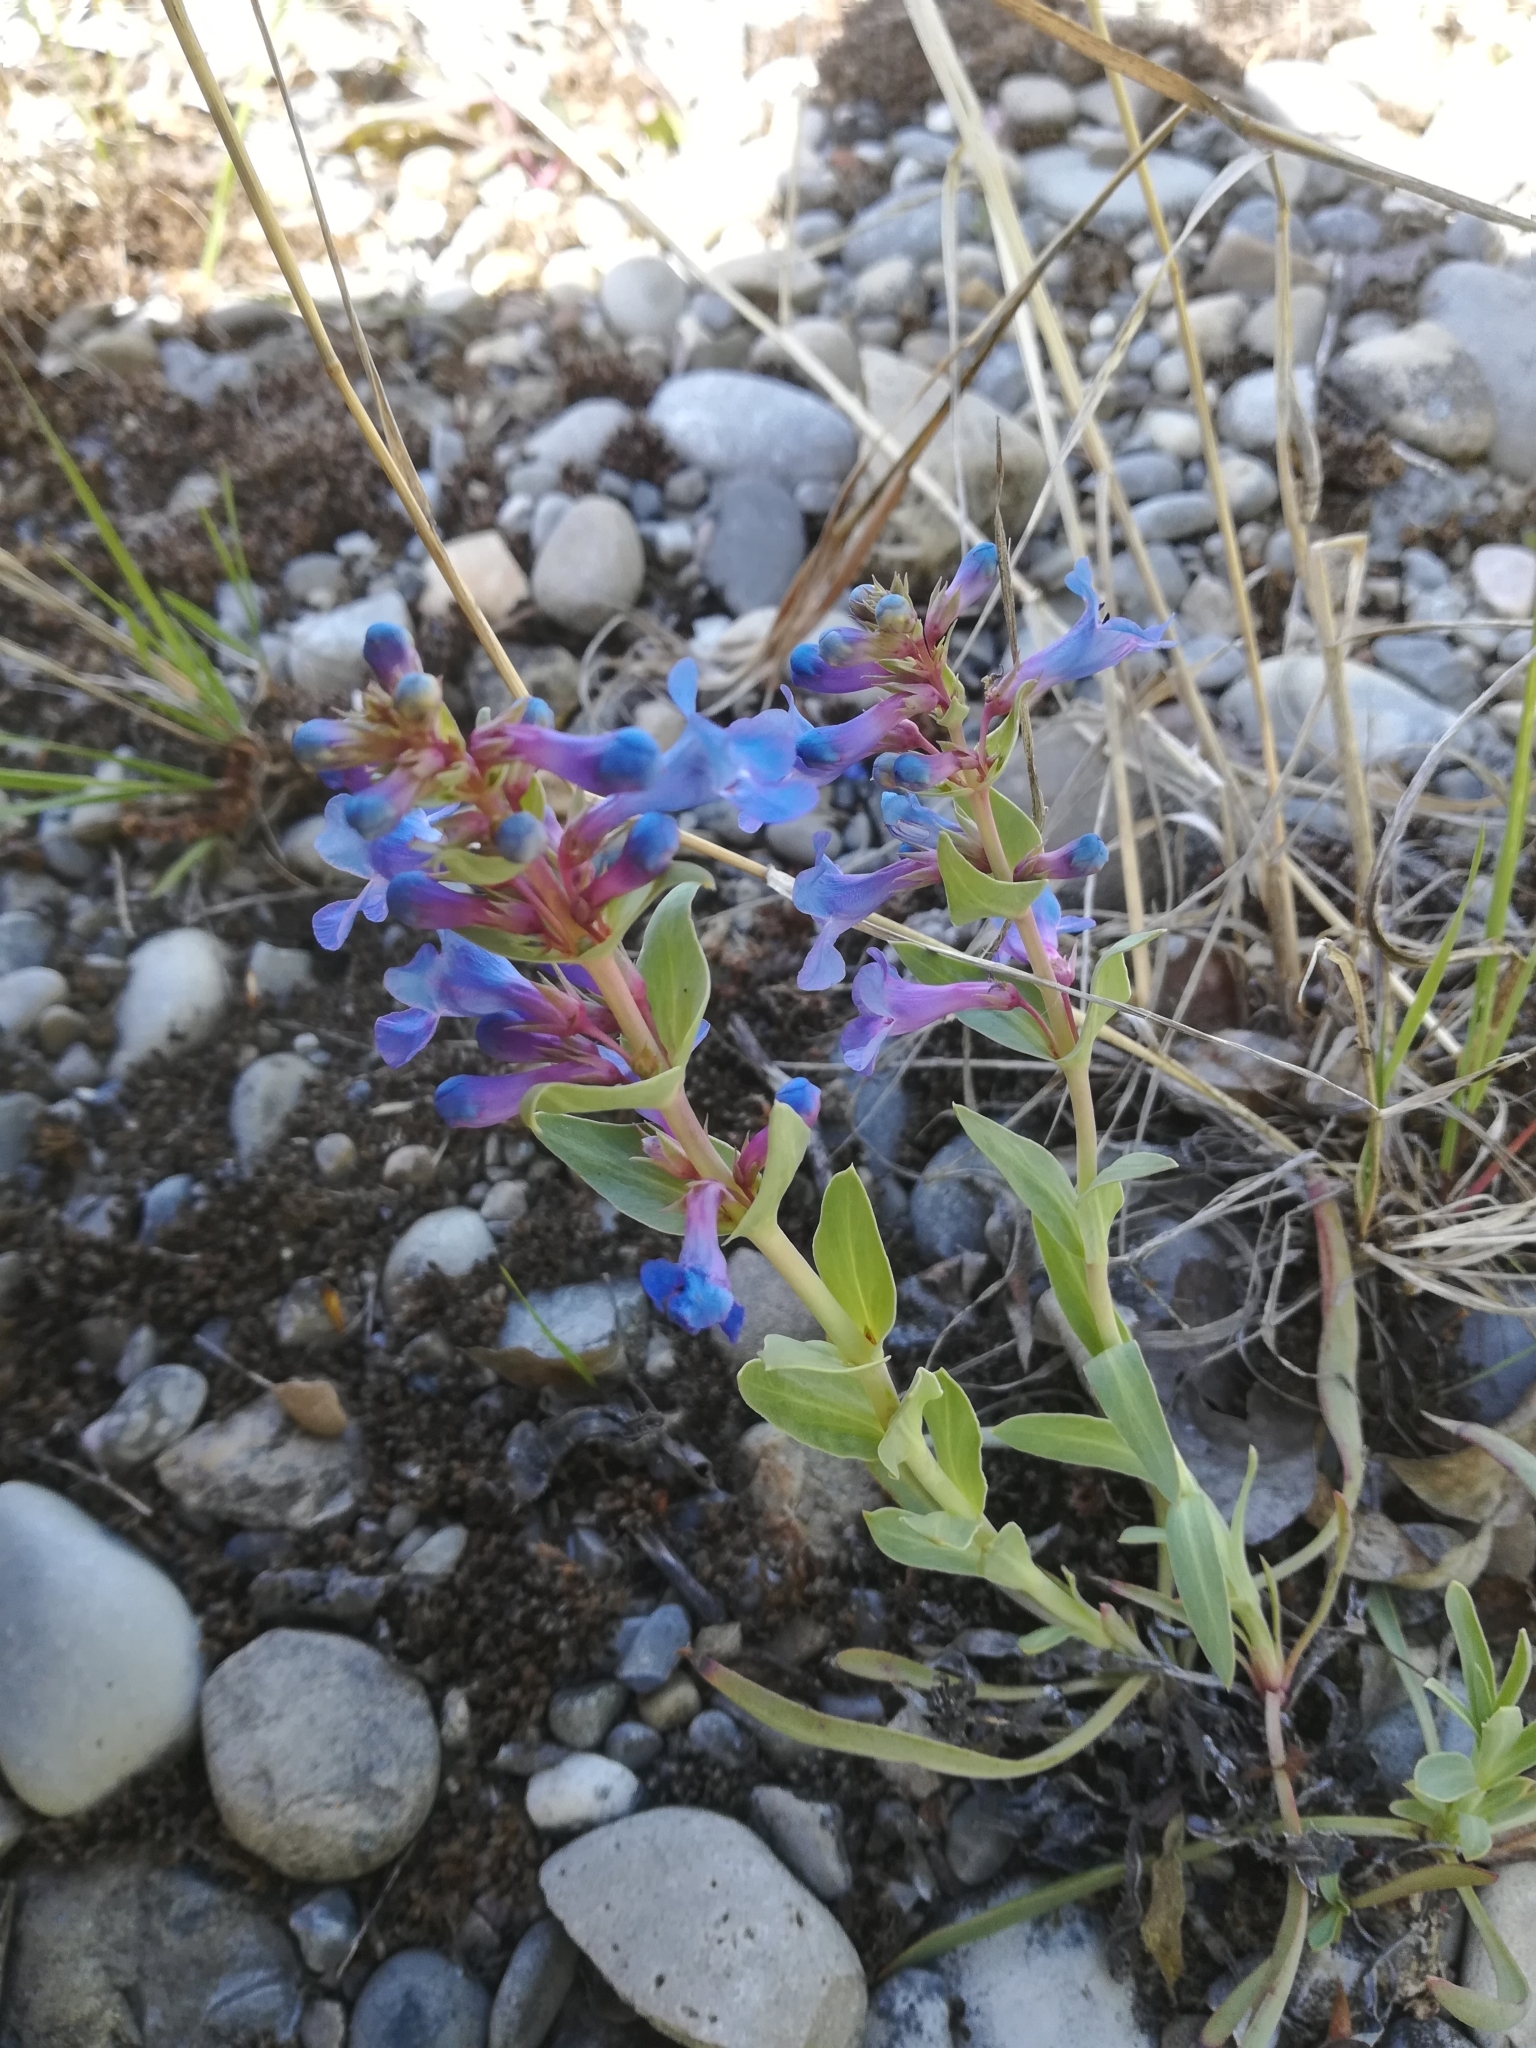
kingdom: Plantae
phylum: Tracheophyta
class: Magnoliopsida
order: Lamiales
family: Plantaginaceae
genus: Penstemon
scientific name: Penstemon nitidus
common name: Shining penstemon
